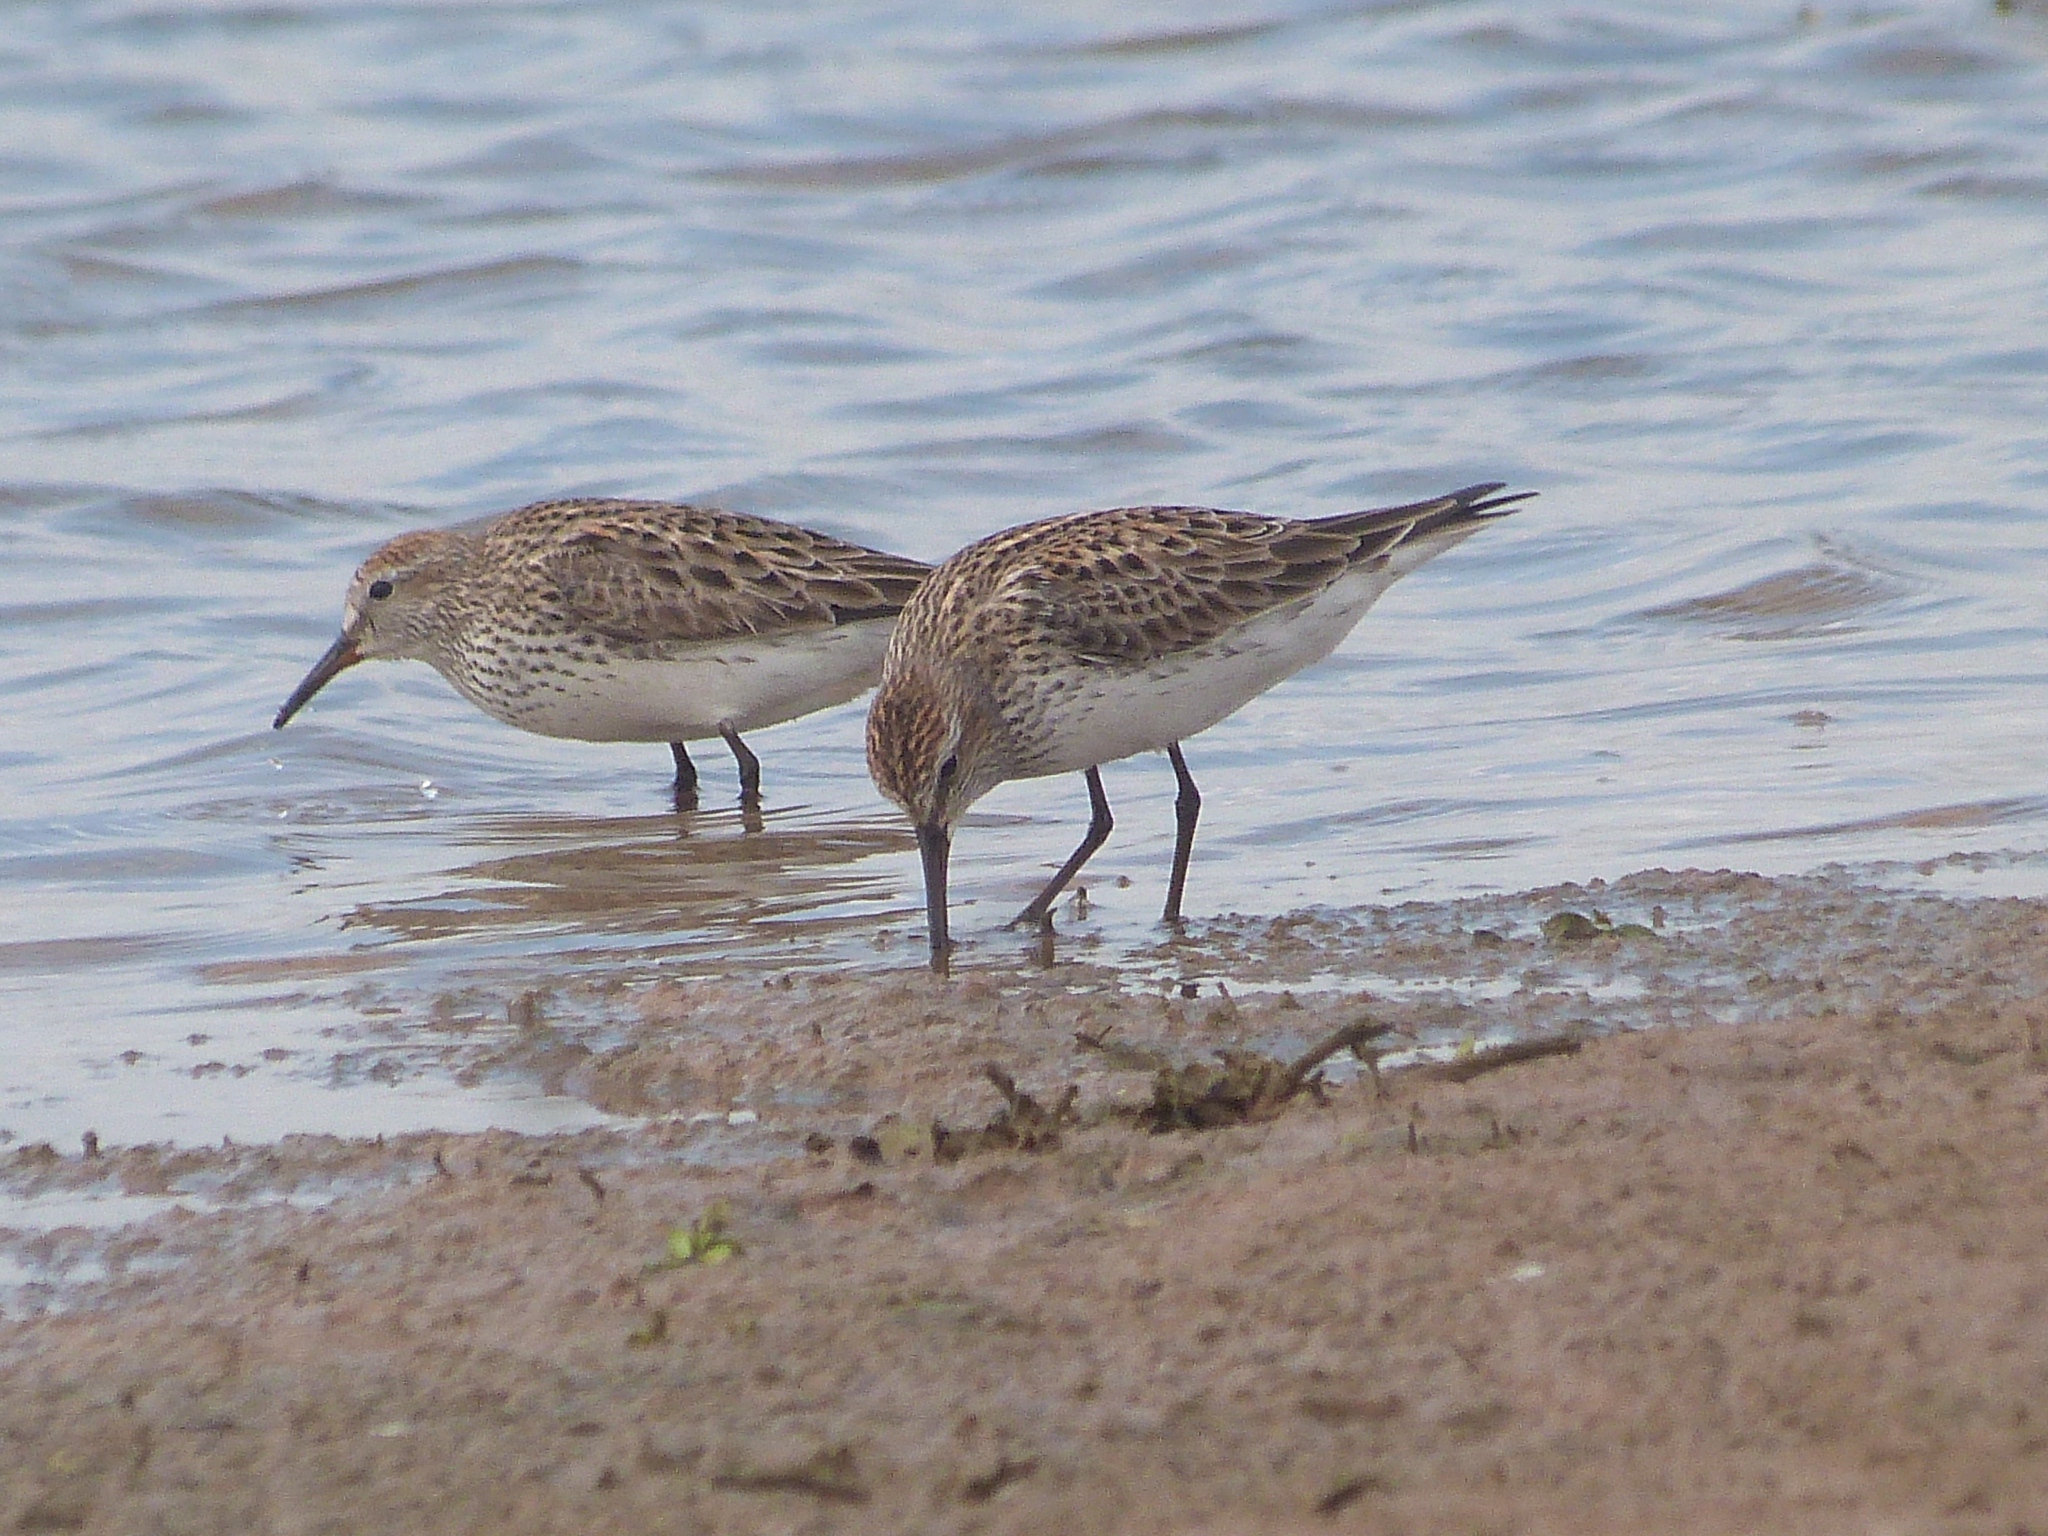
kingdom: Animalia
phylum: Chordata
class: Aves
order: Charadriiformes
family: Scolopacidae
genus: Calidris
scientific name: Calidris fuscicollis
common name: White-rumped sandpiper
